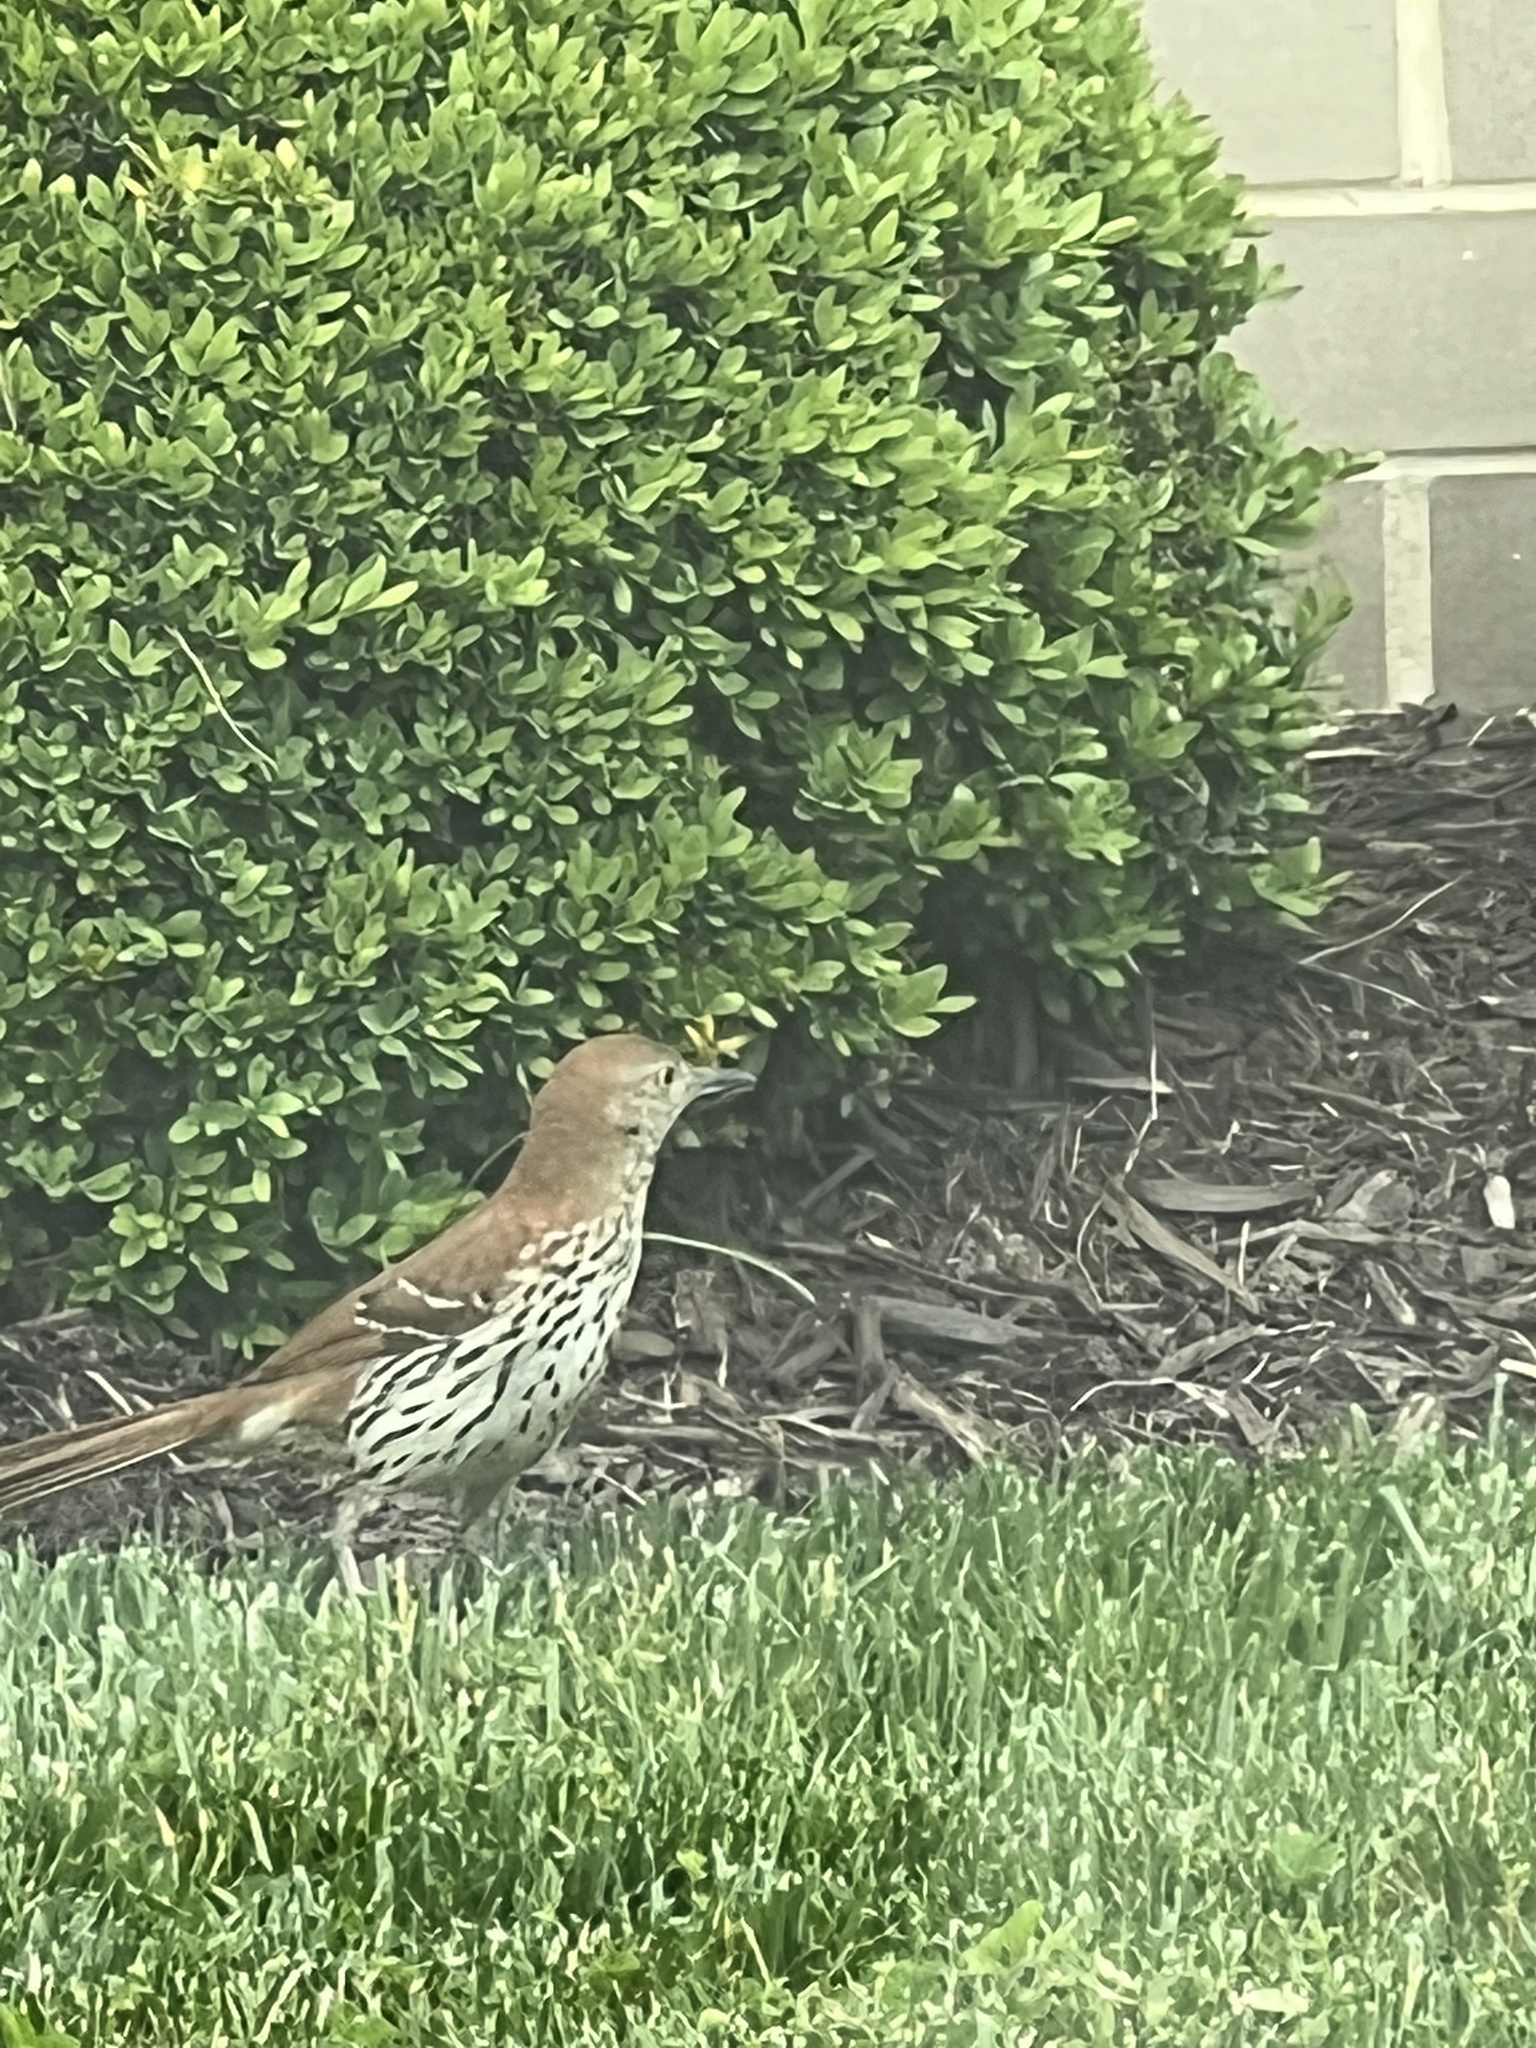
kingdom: Animalia
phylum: Chordata
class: Aves
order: Passeriformes
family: Mimidae
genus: Toxostoma
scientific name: Toxostoma rufum
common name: Brown thrasher
